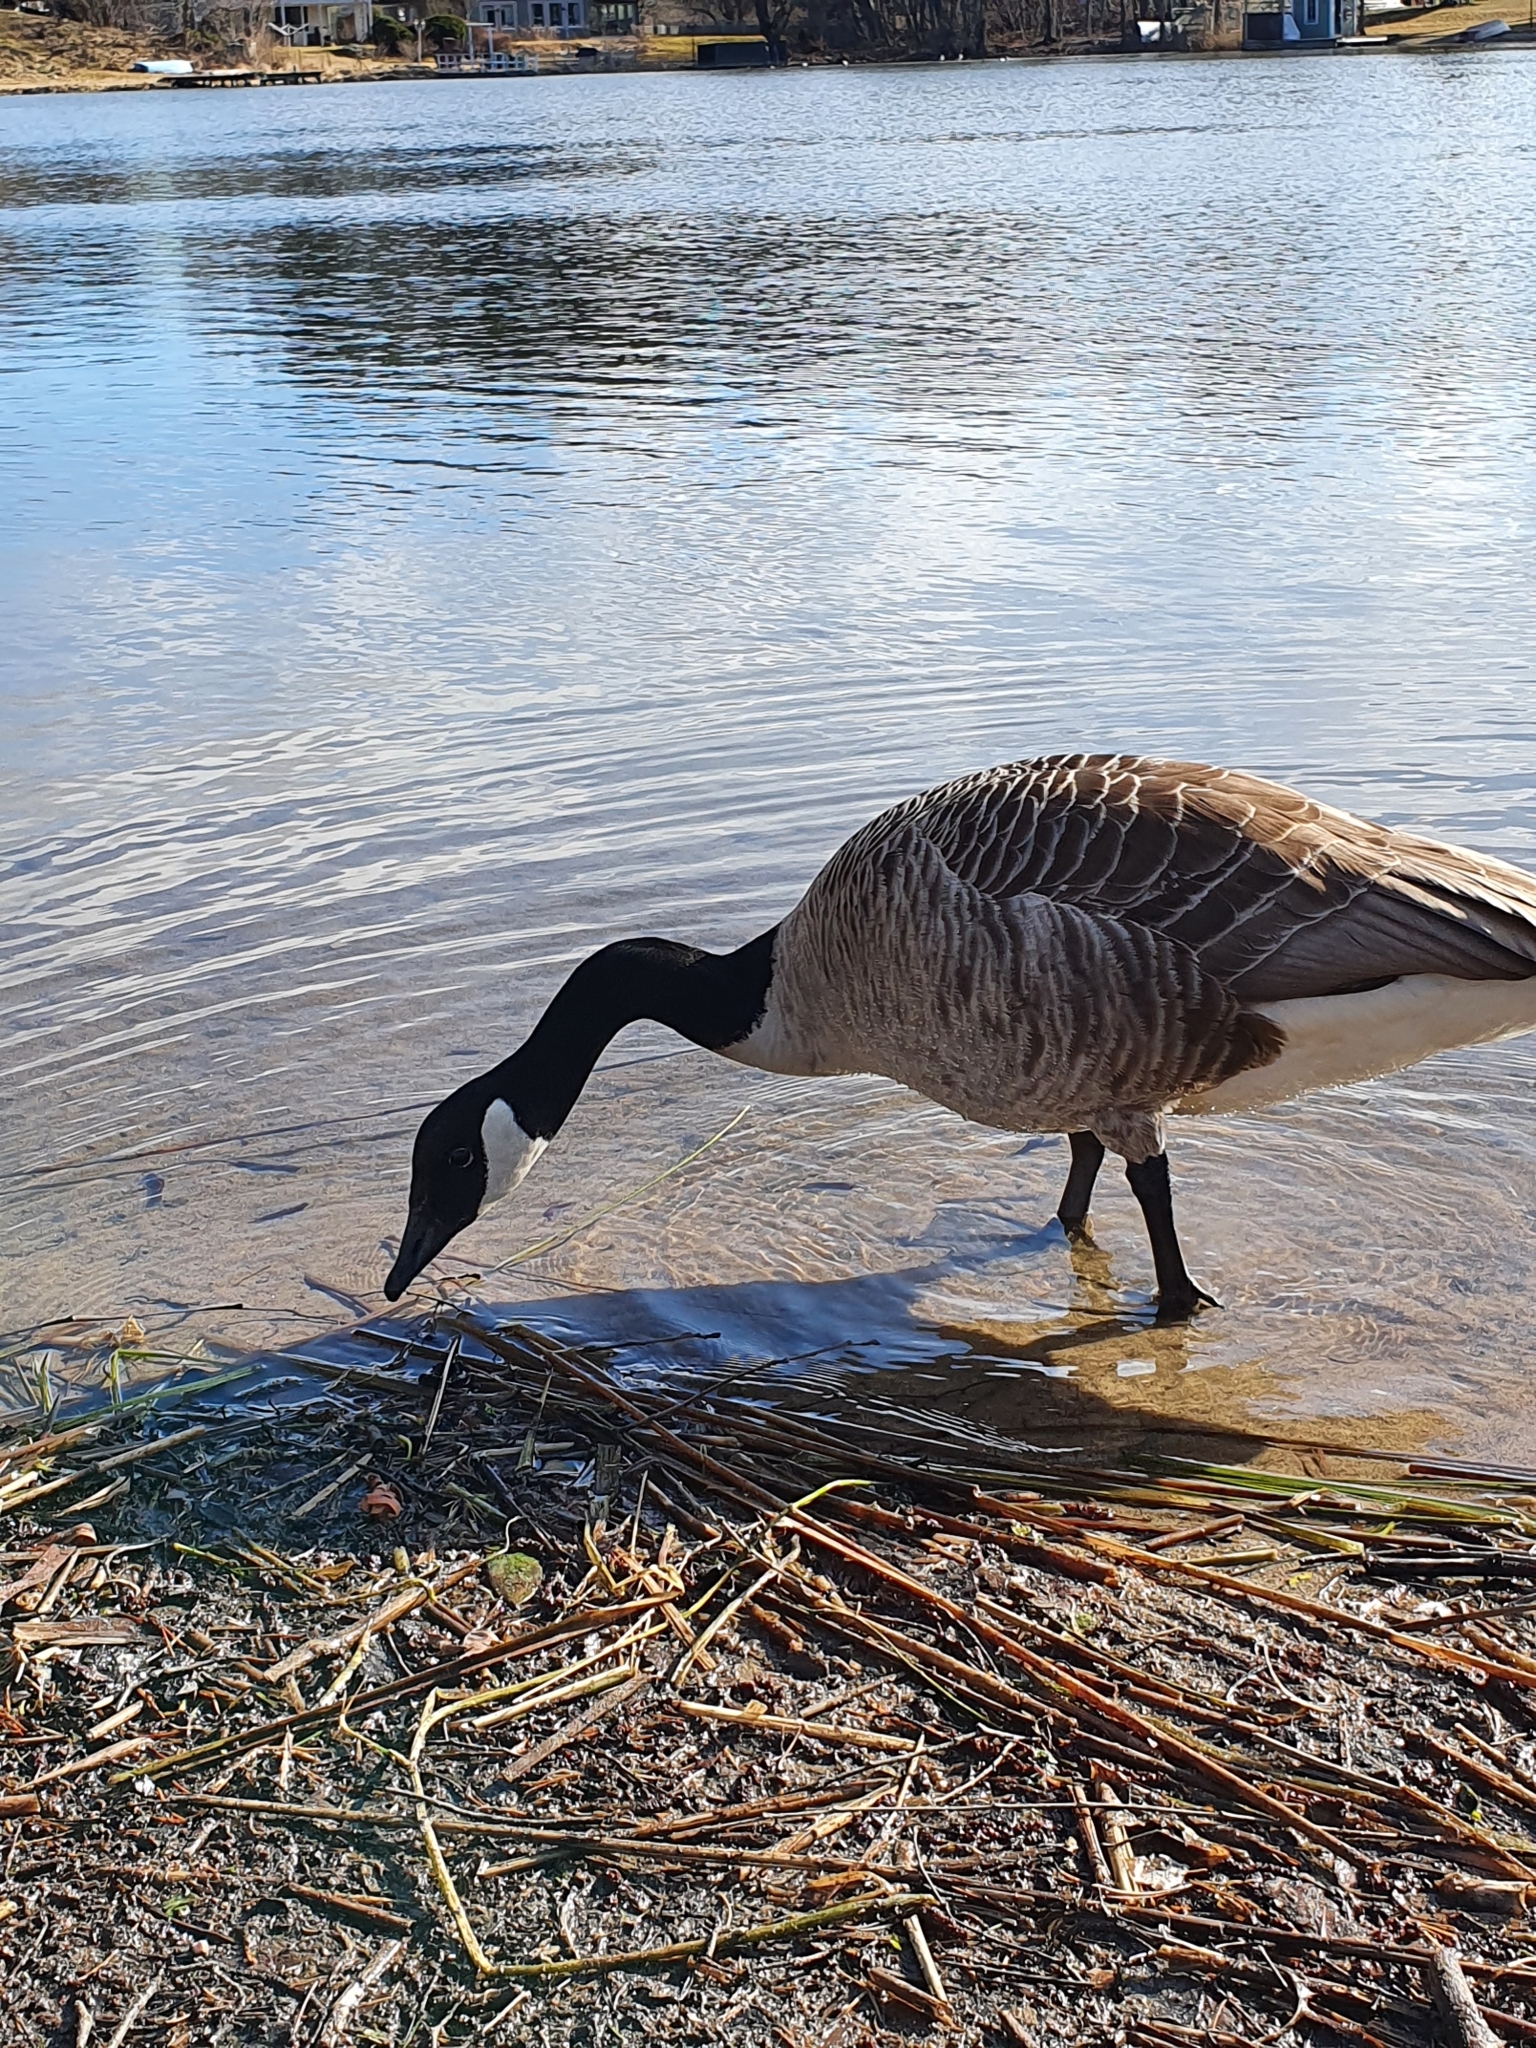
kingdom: Animalia
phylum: Chordata
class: Aves
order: Anseriformes
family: Anatidae
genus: Branta
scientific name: Branta canadensis
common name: Canada goose
